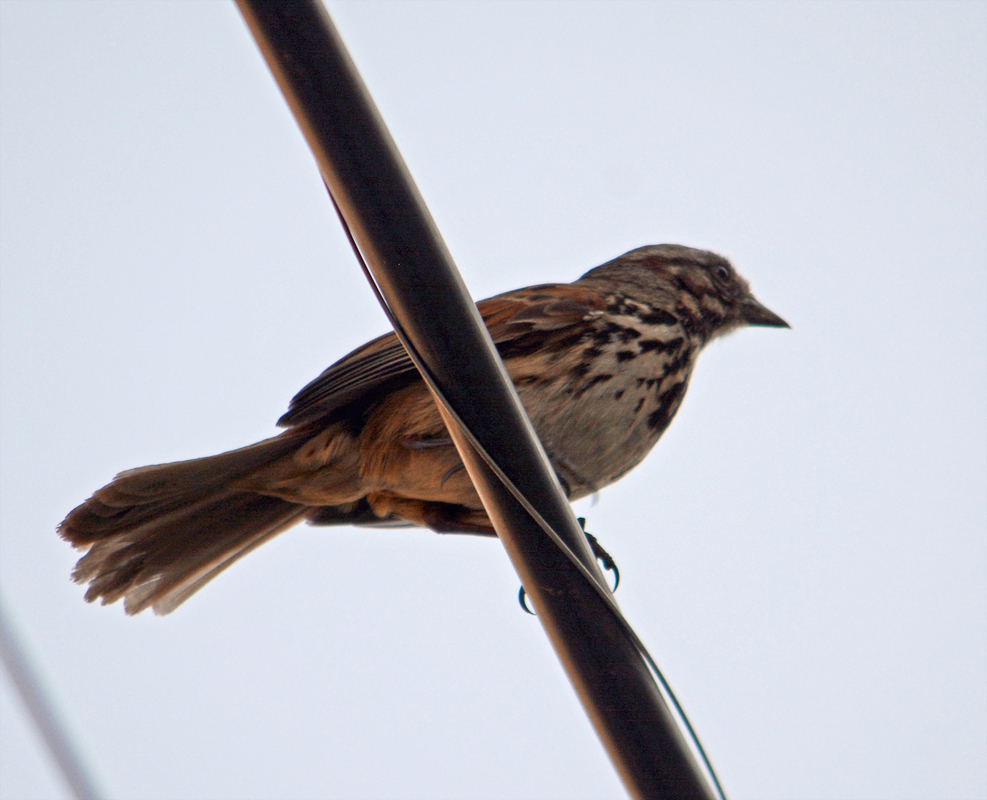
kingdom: Animalia
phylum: Chordata
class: Aves
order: Passeriformes
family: Passerellidae
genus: Melospiza
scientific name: Melospiza melodia
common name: Song sparrow
